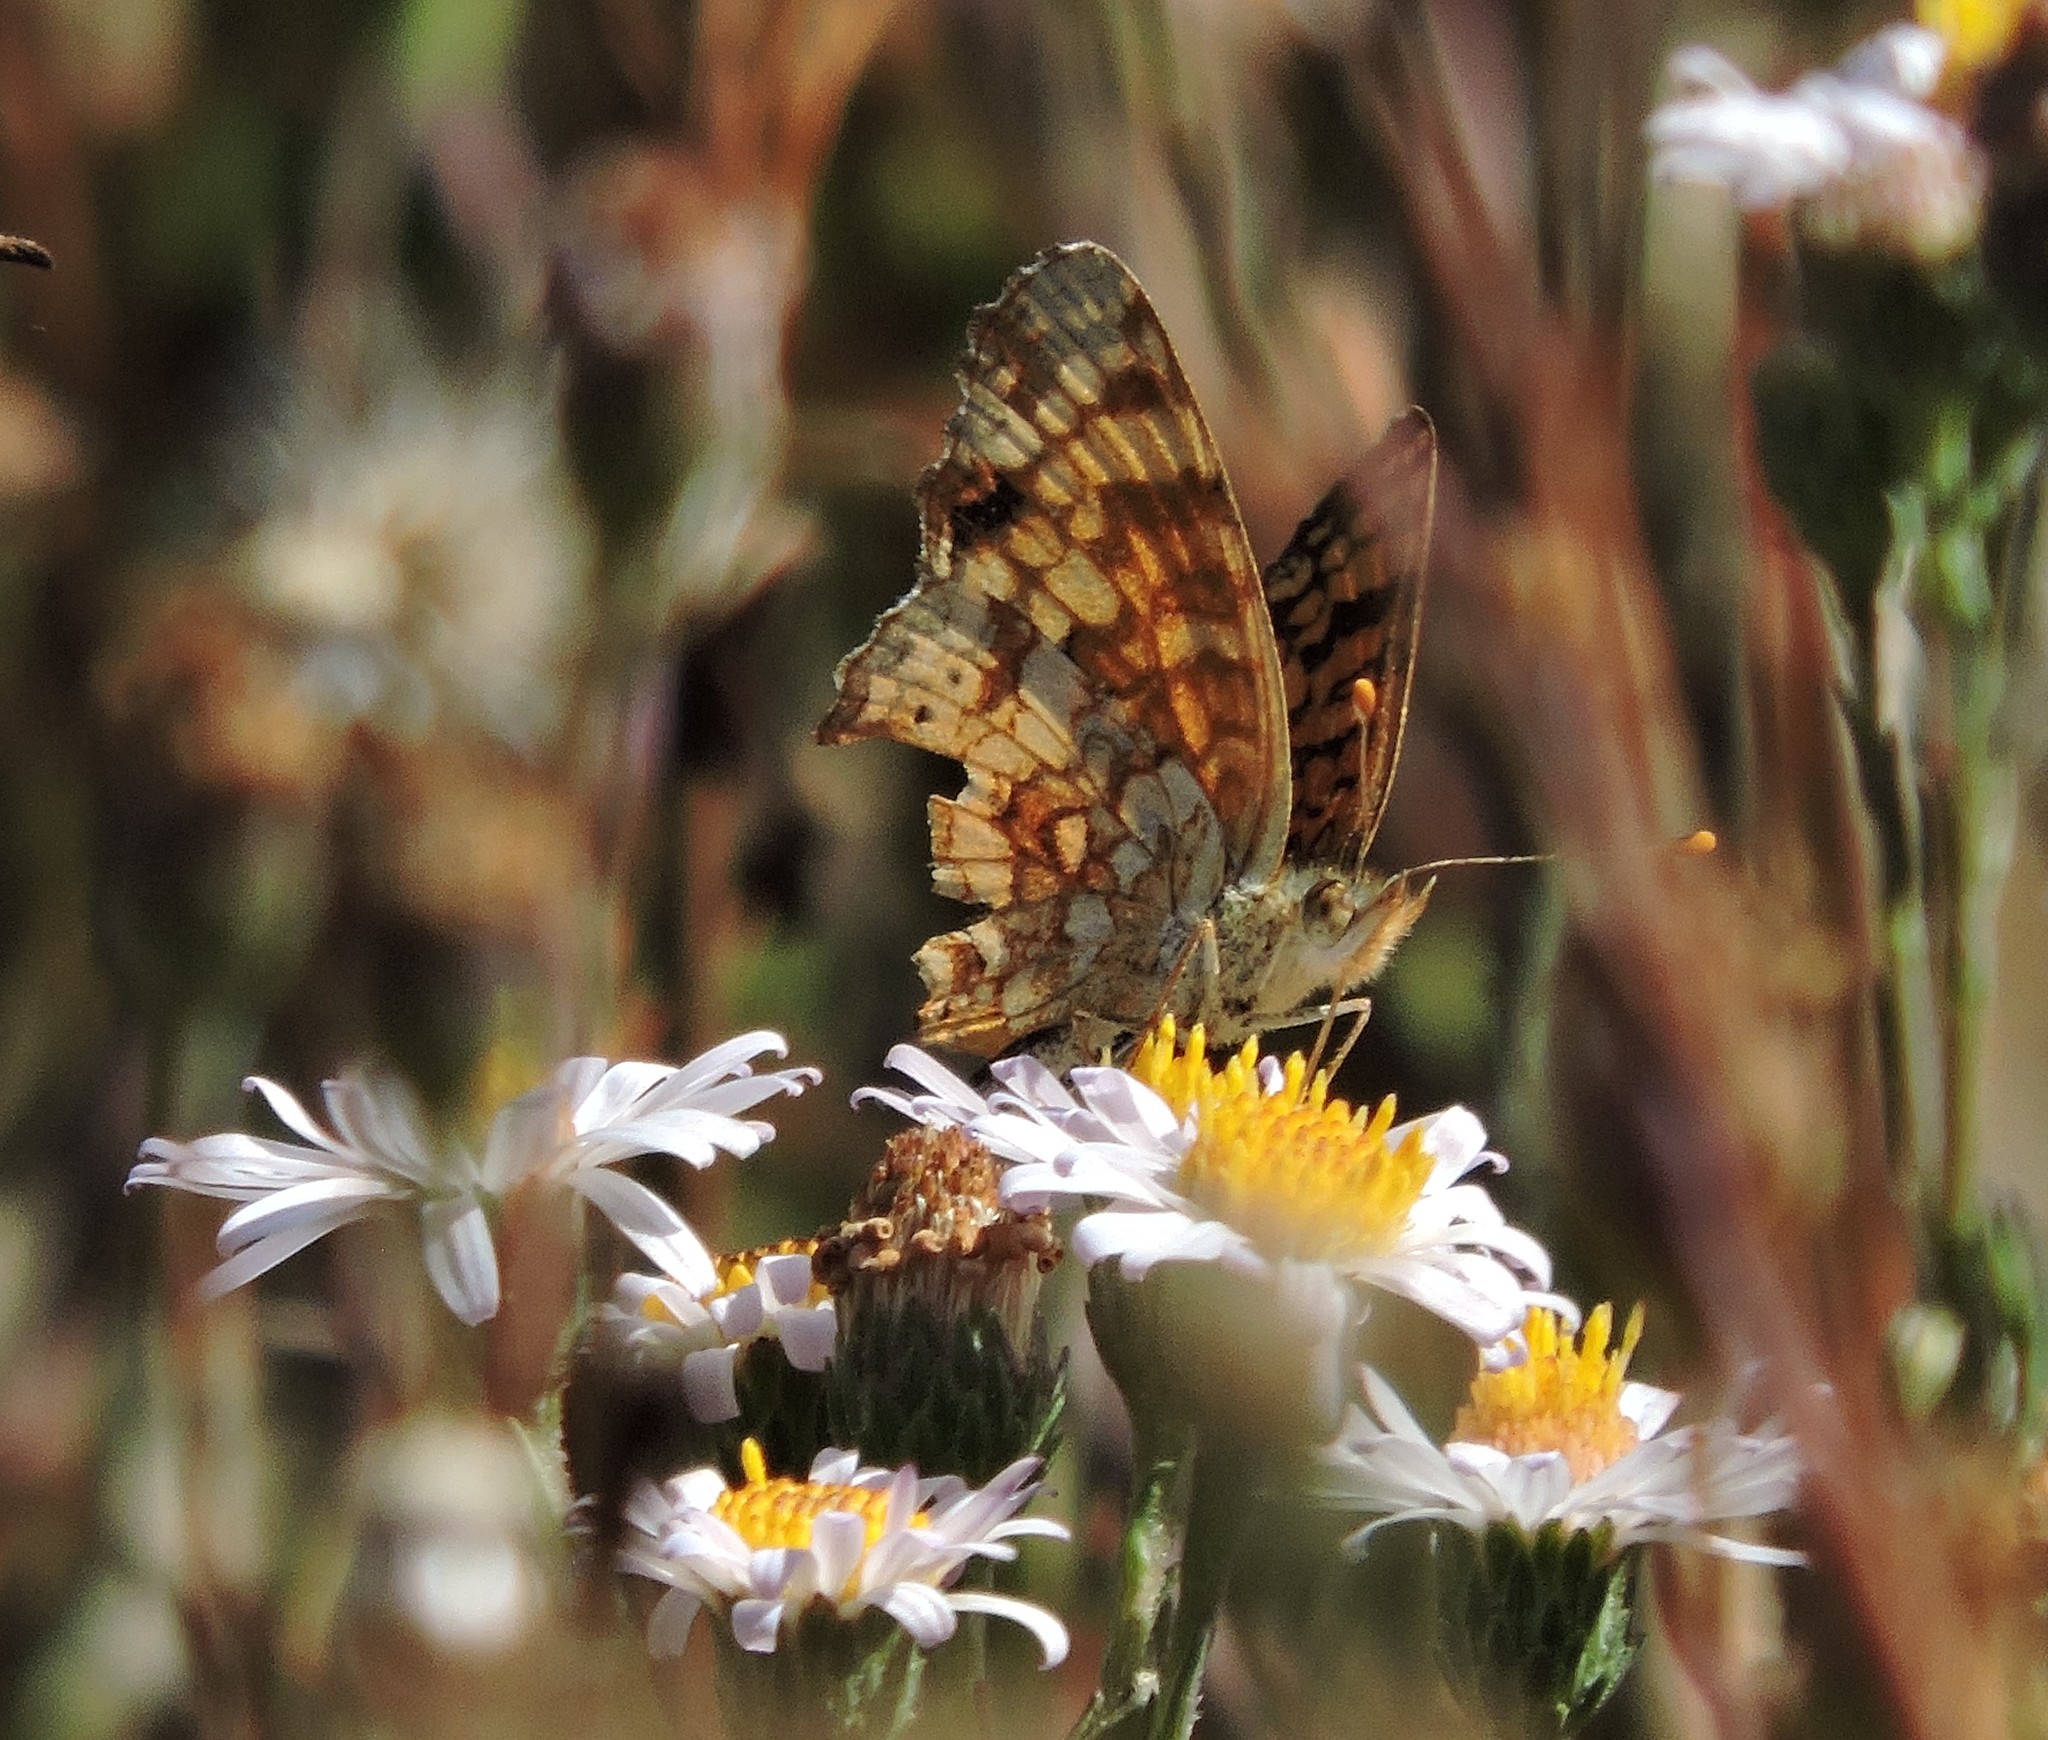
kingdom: Animalia
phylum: Arthropoda
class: Insecta
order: Lepidoptera
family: Nymphalidae
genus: Eresia
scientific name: Eresia aveyrona
